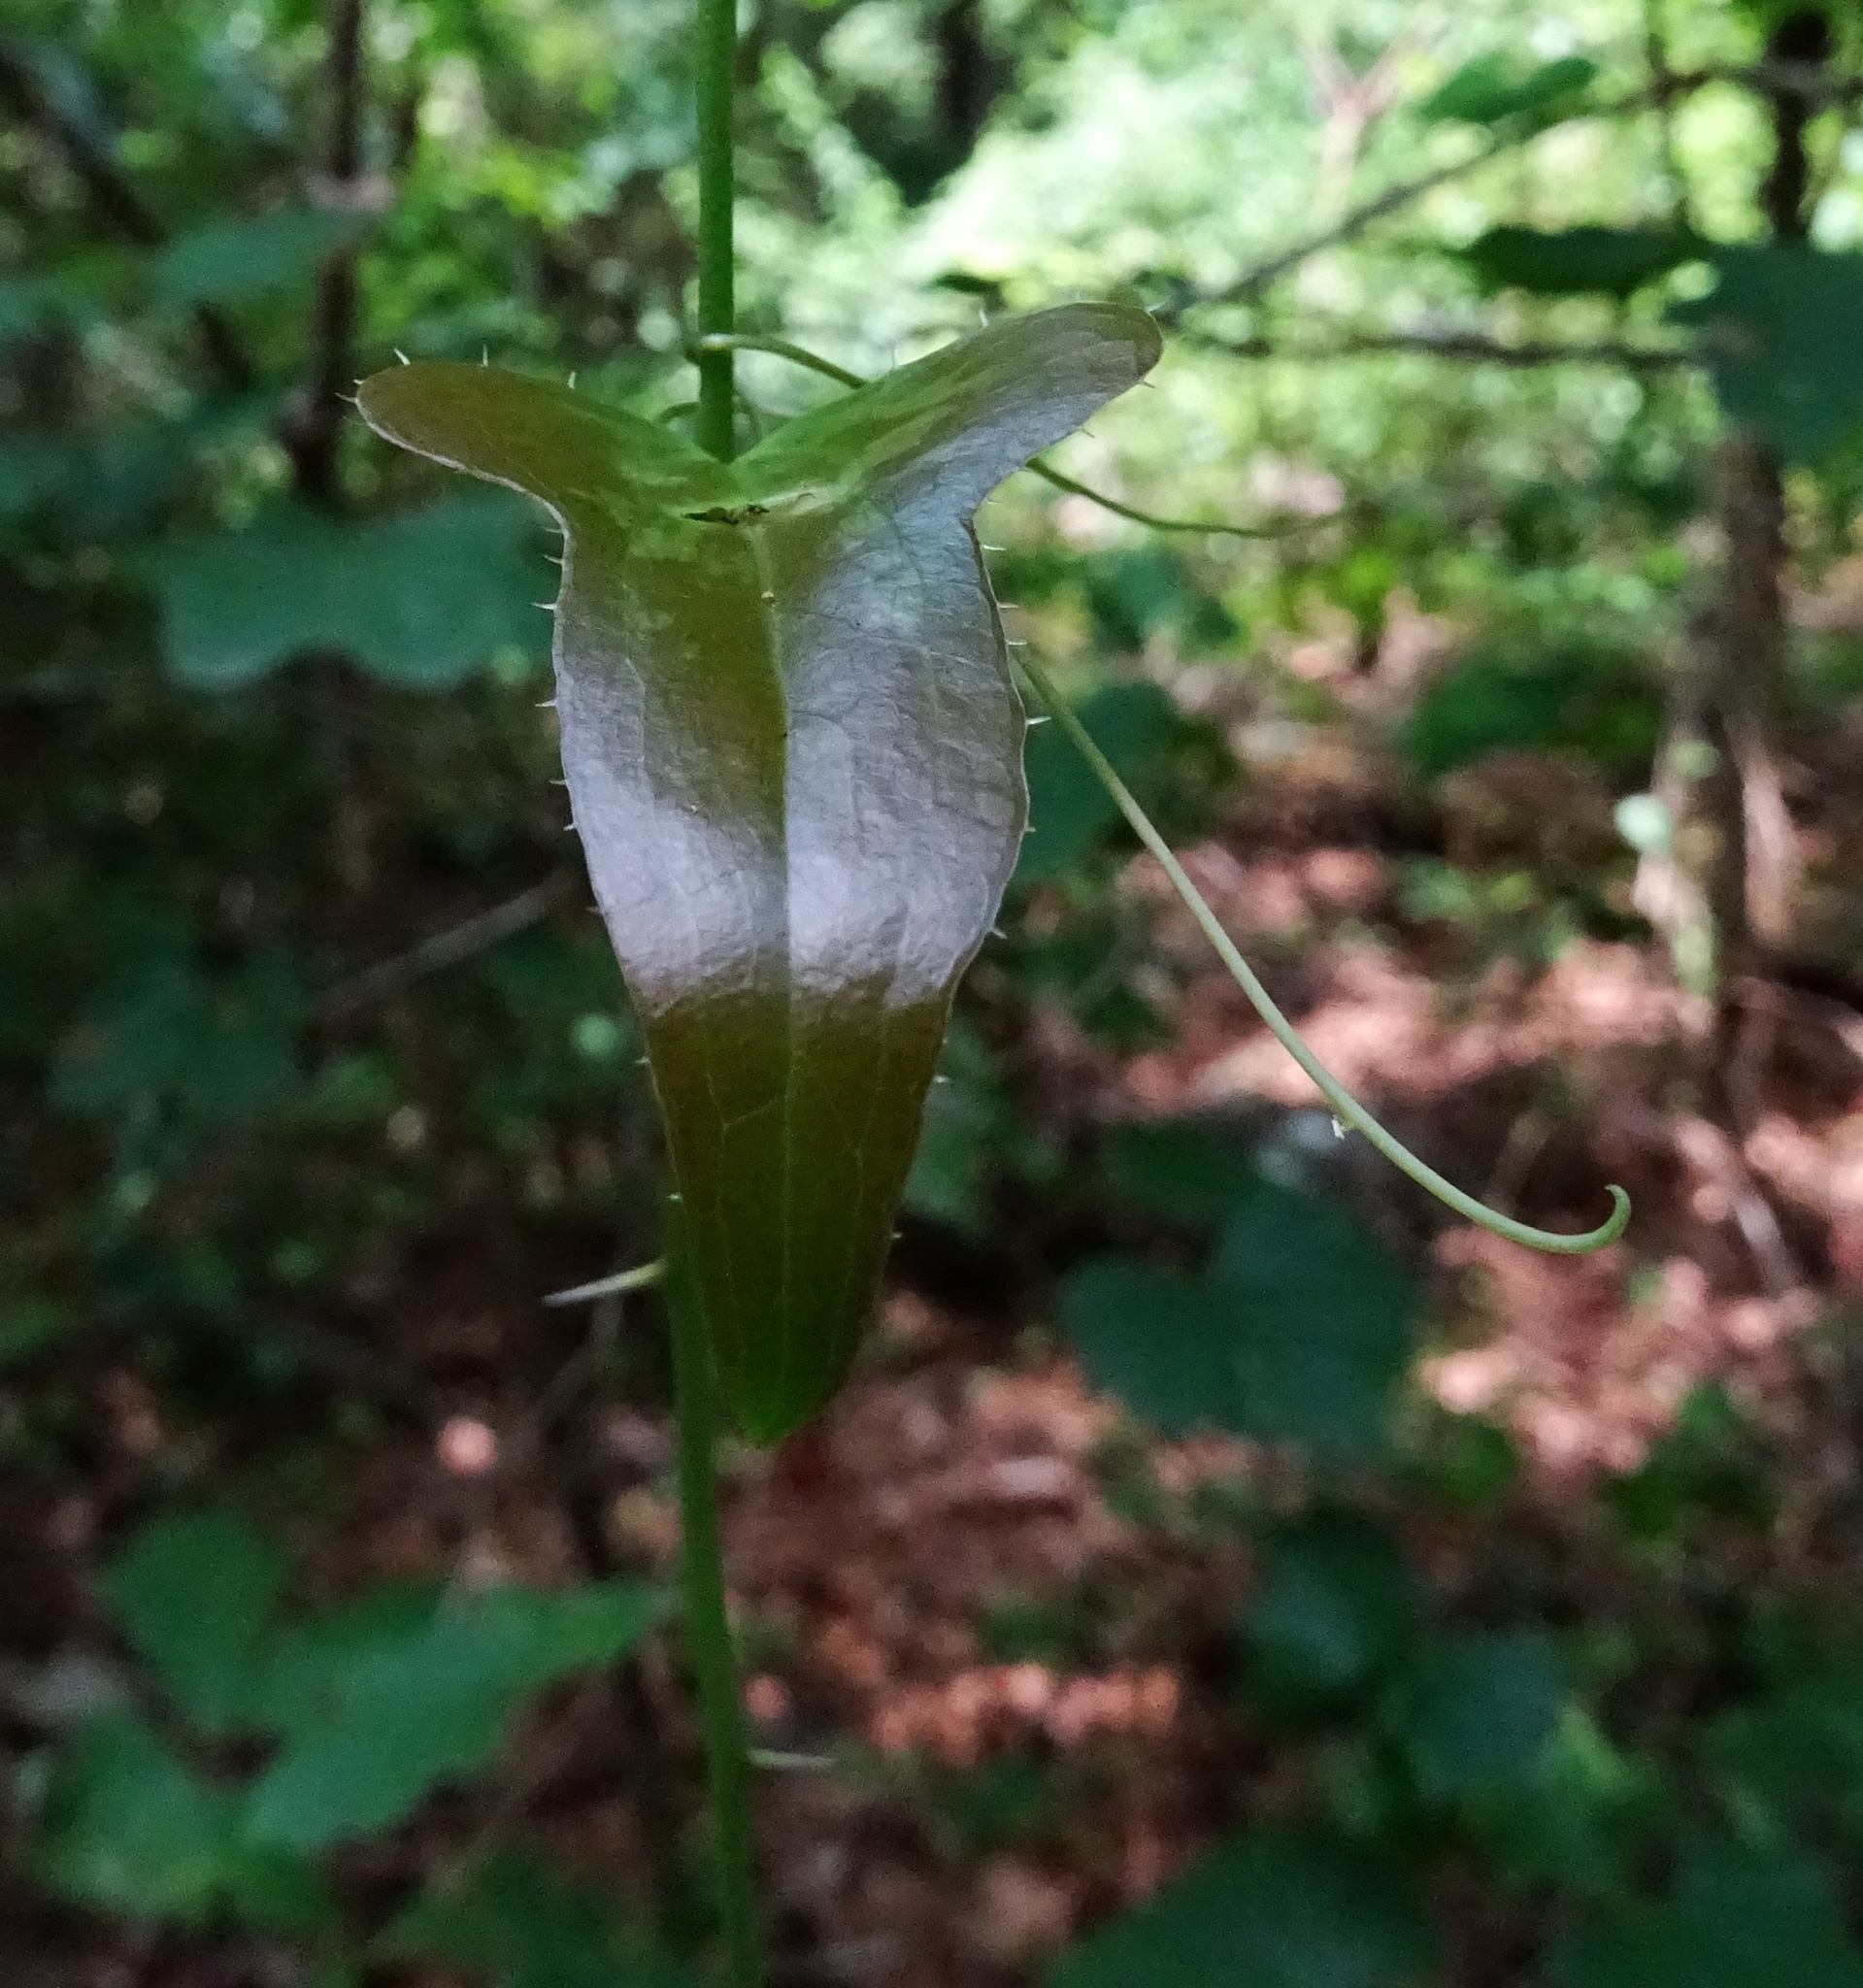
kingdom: Plantae
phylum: Tracheophyta
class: Liliopsida
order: Liliales
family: Smilacaceae
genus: Smilax
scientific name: Smilax bona-nox
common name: Catbrier
